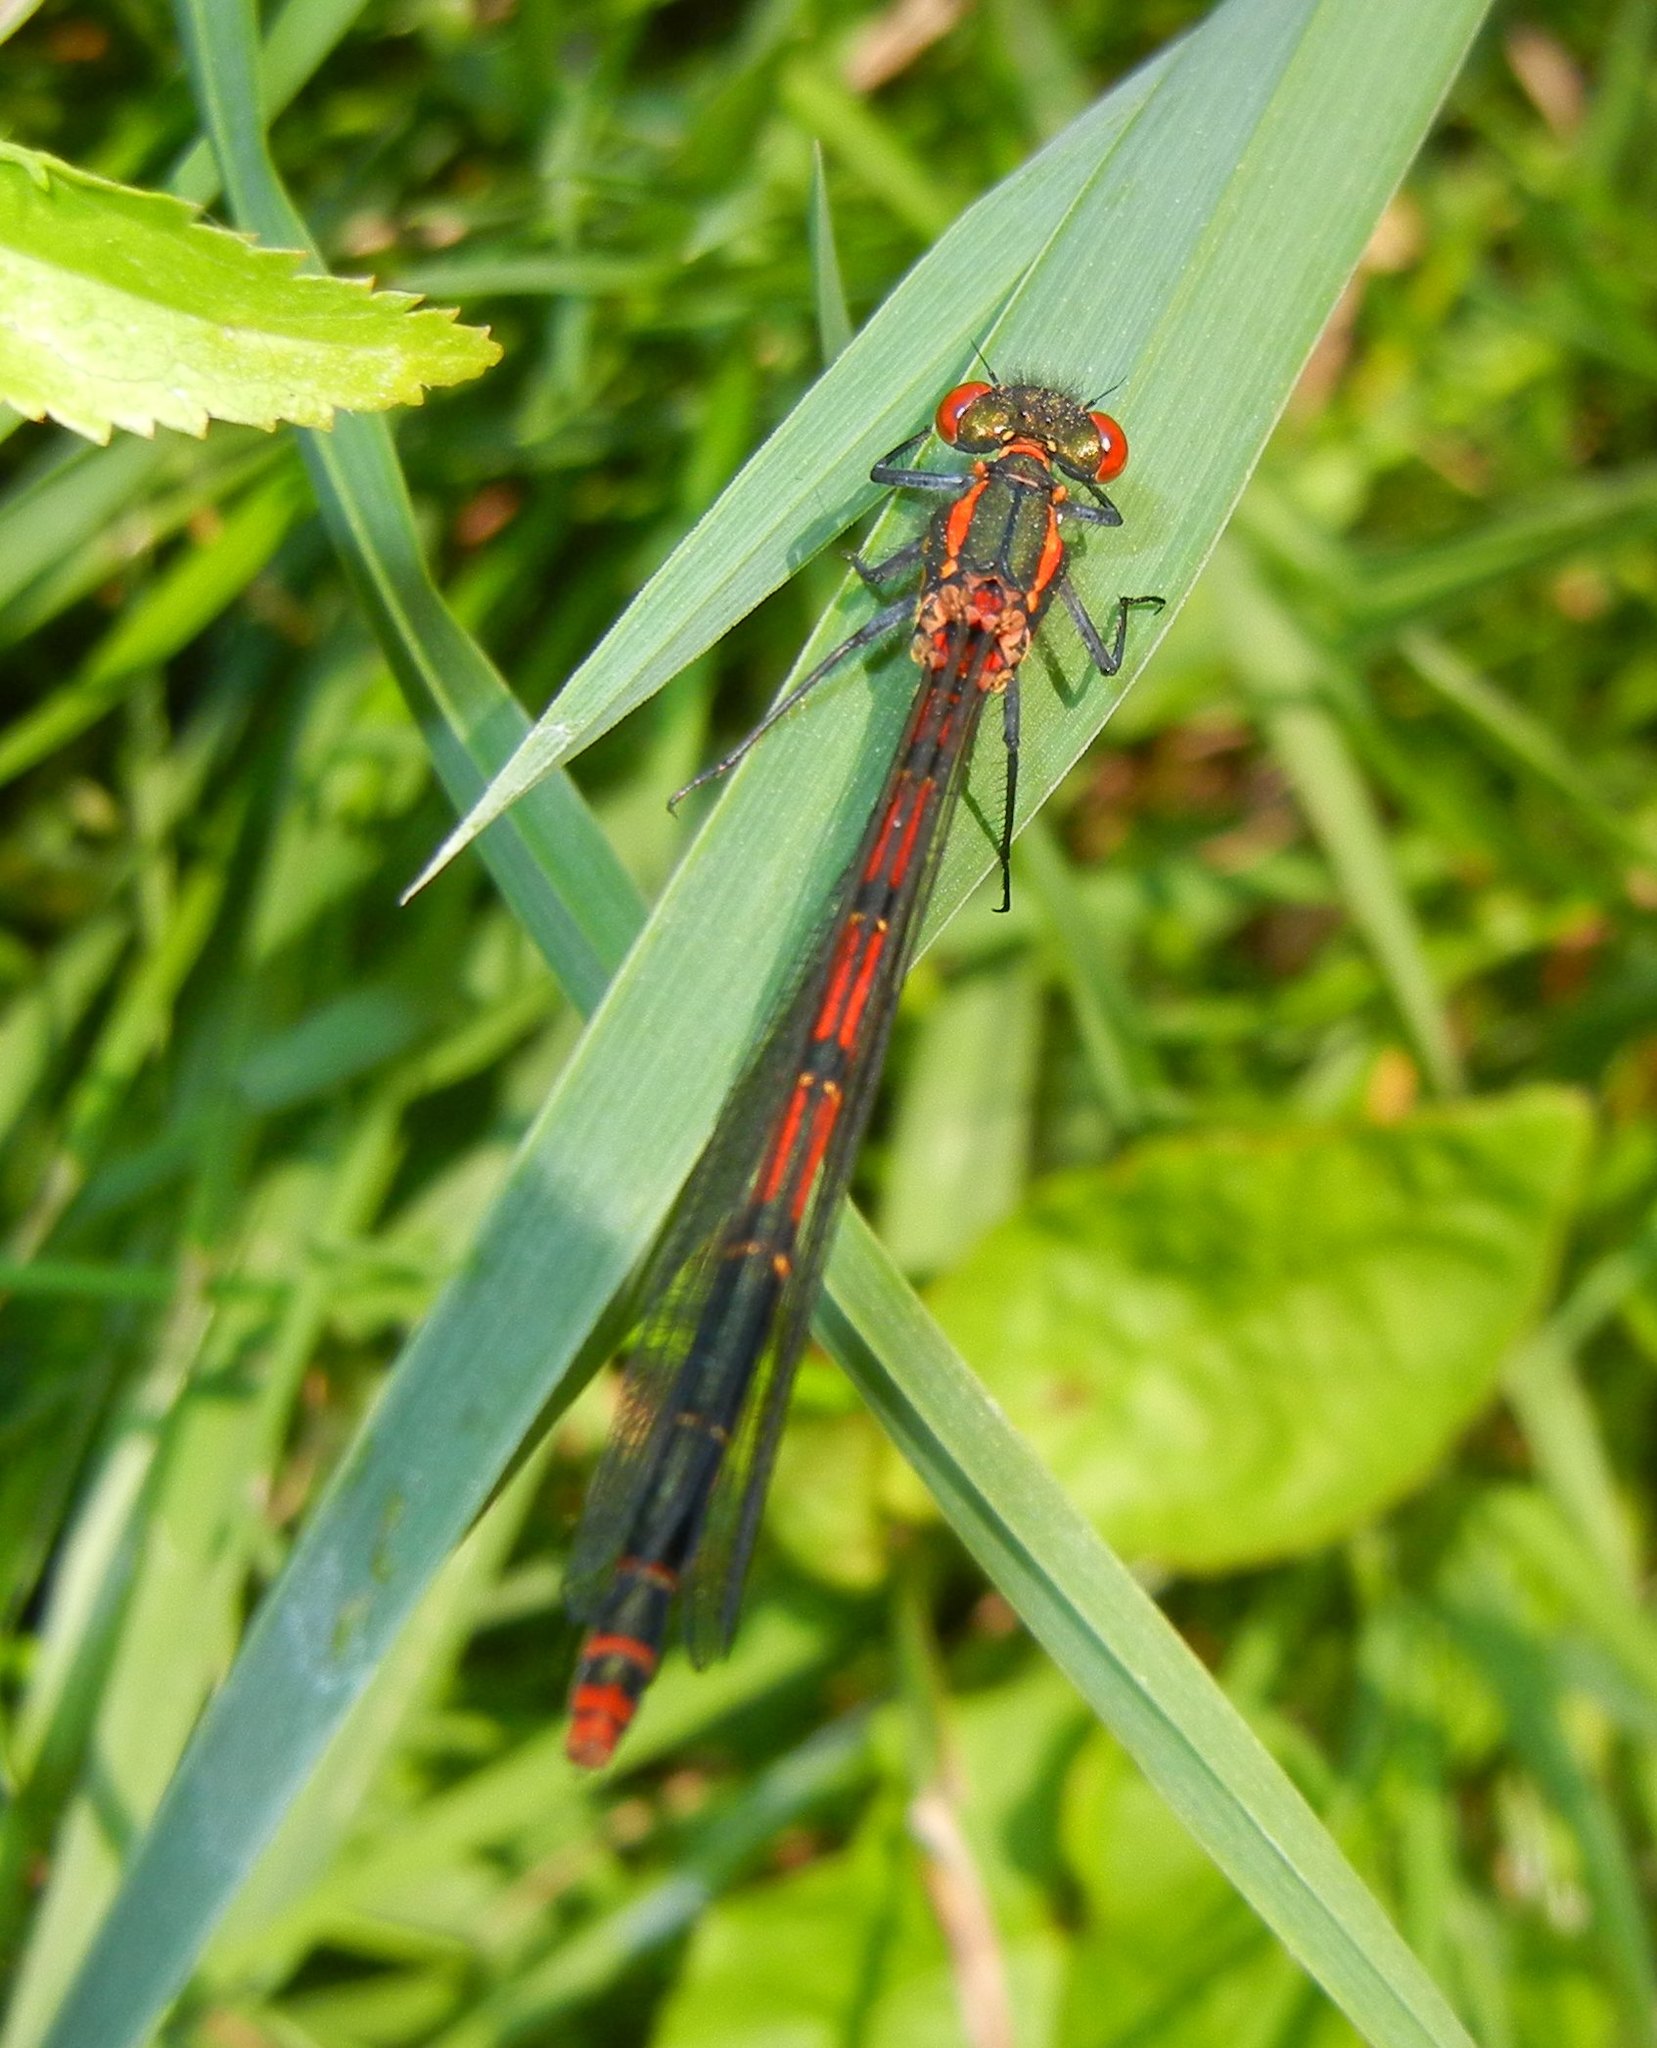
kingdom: Animalia
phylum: Arthropoda
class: Insecta
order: Odonata
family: Coenagrionidae
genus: Pyrrhosoma
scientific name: Pyrrhosoma nymphula
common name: Large red damsel
